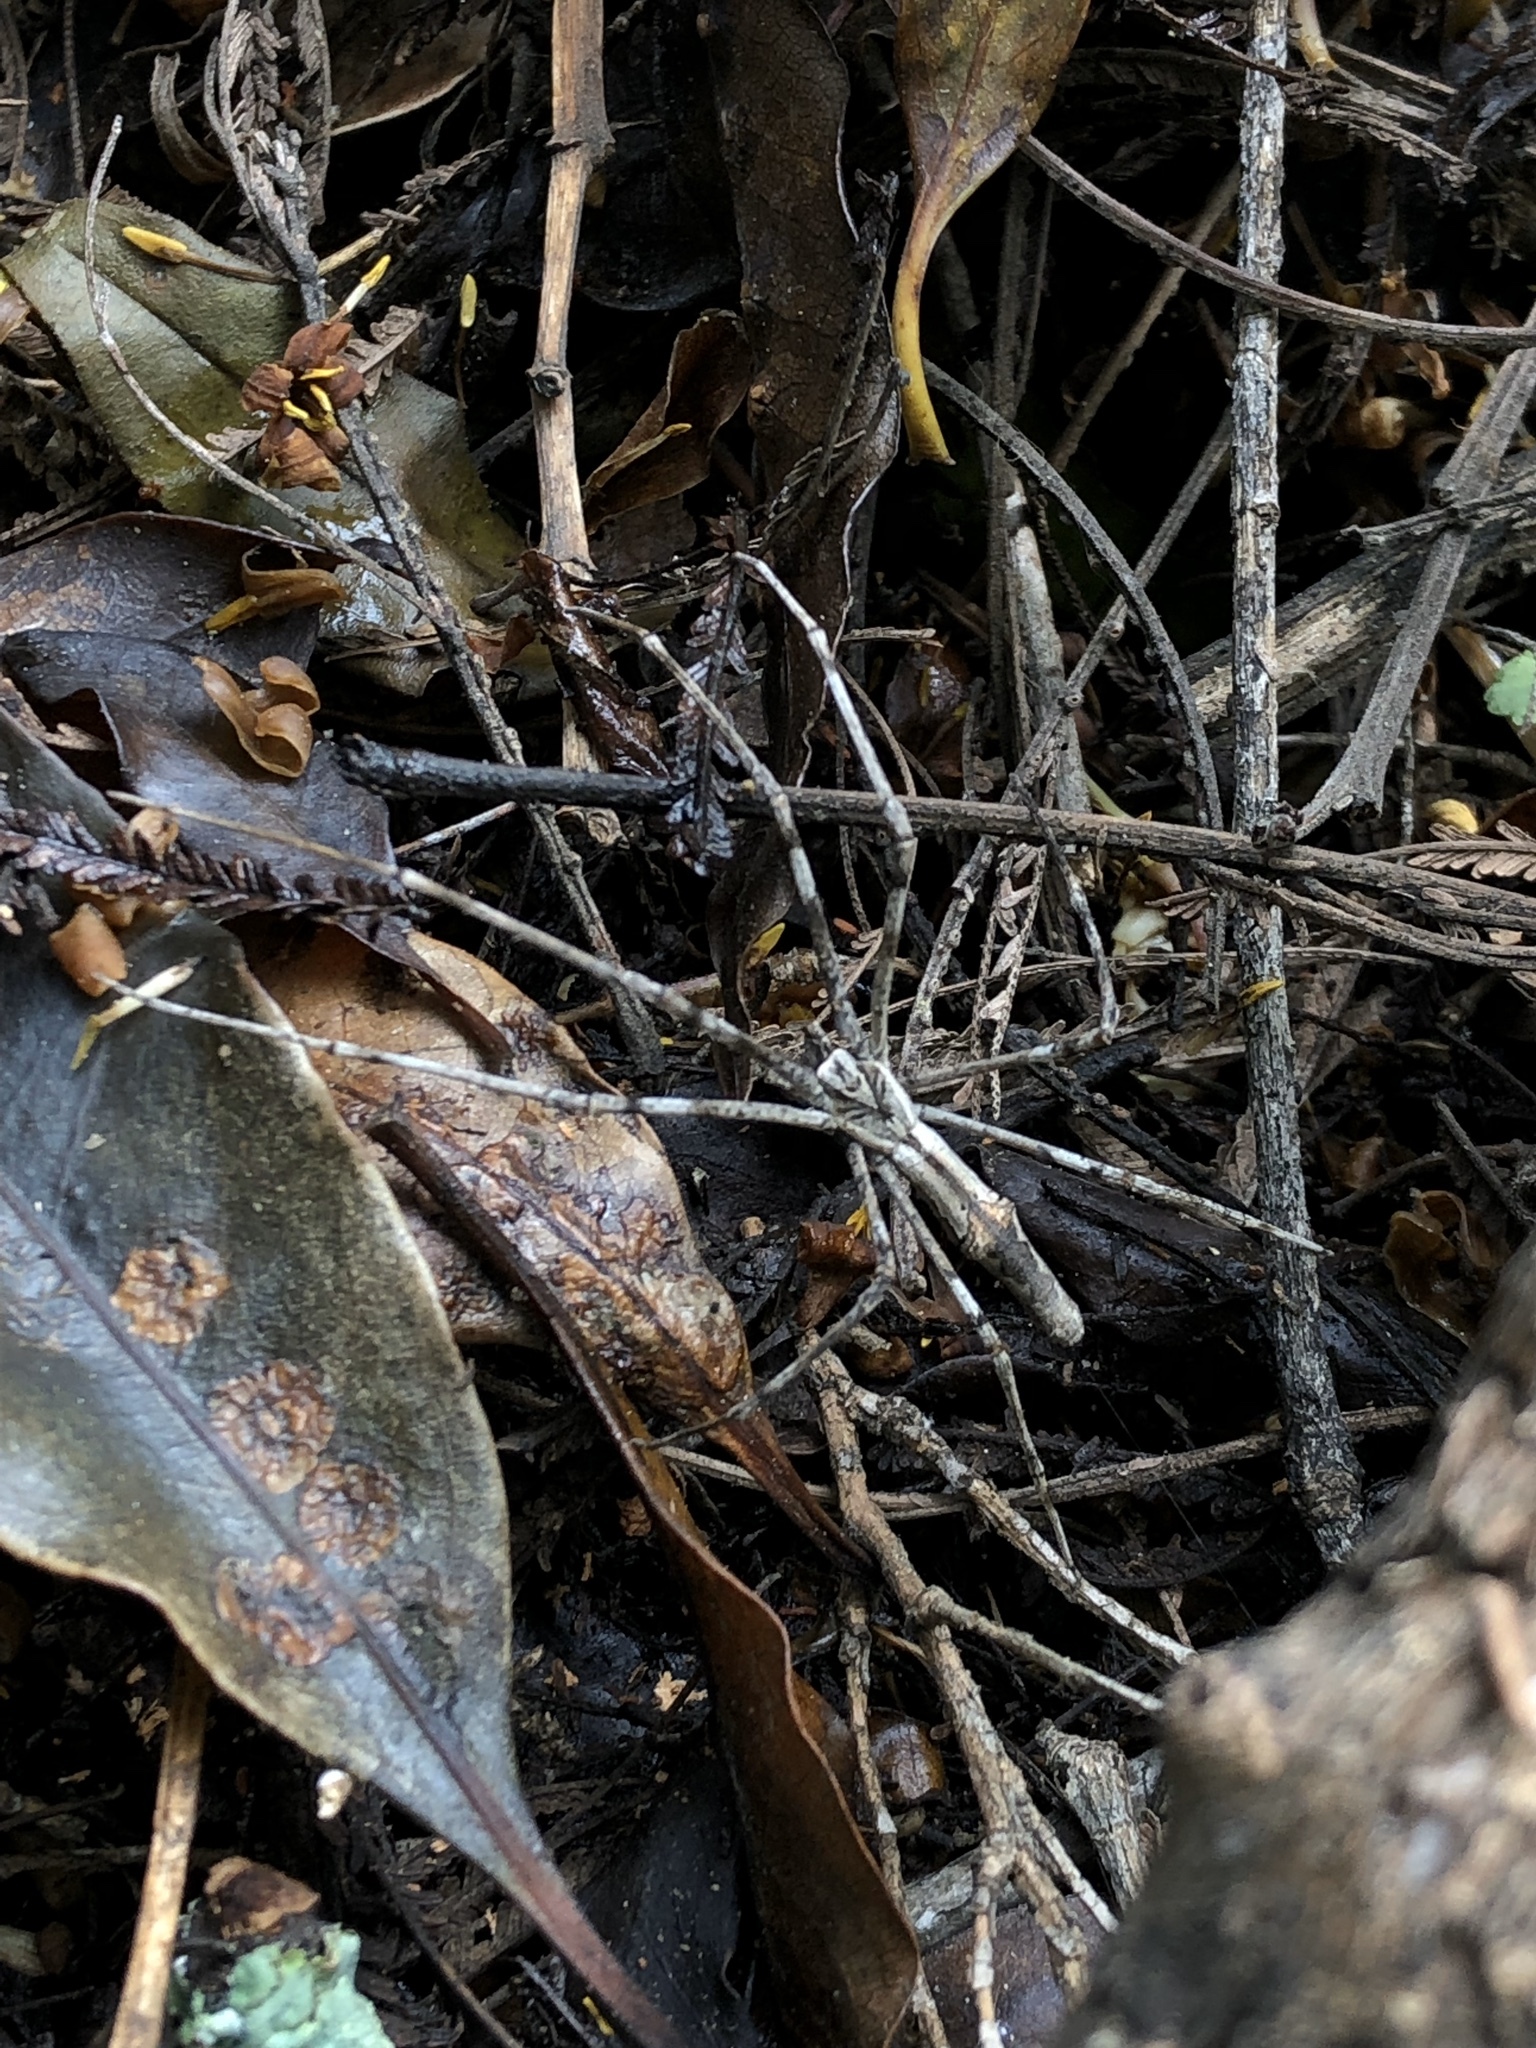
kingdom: Animalia
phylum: Arthropoda
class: Arachnida
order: Araneae
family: Deinopidae
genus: Deinopis
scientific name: Deinopis subrufa
